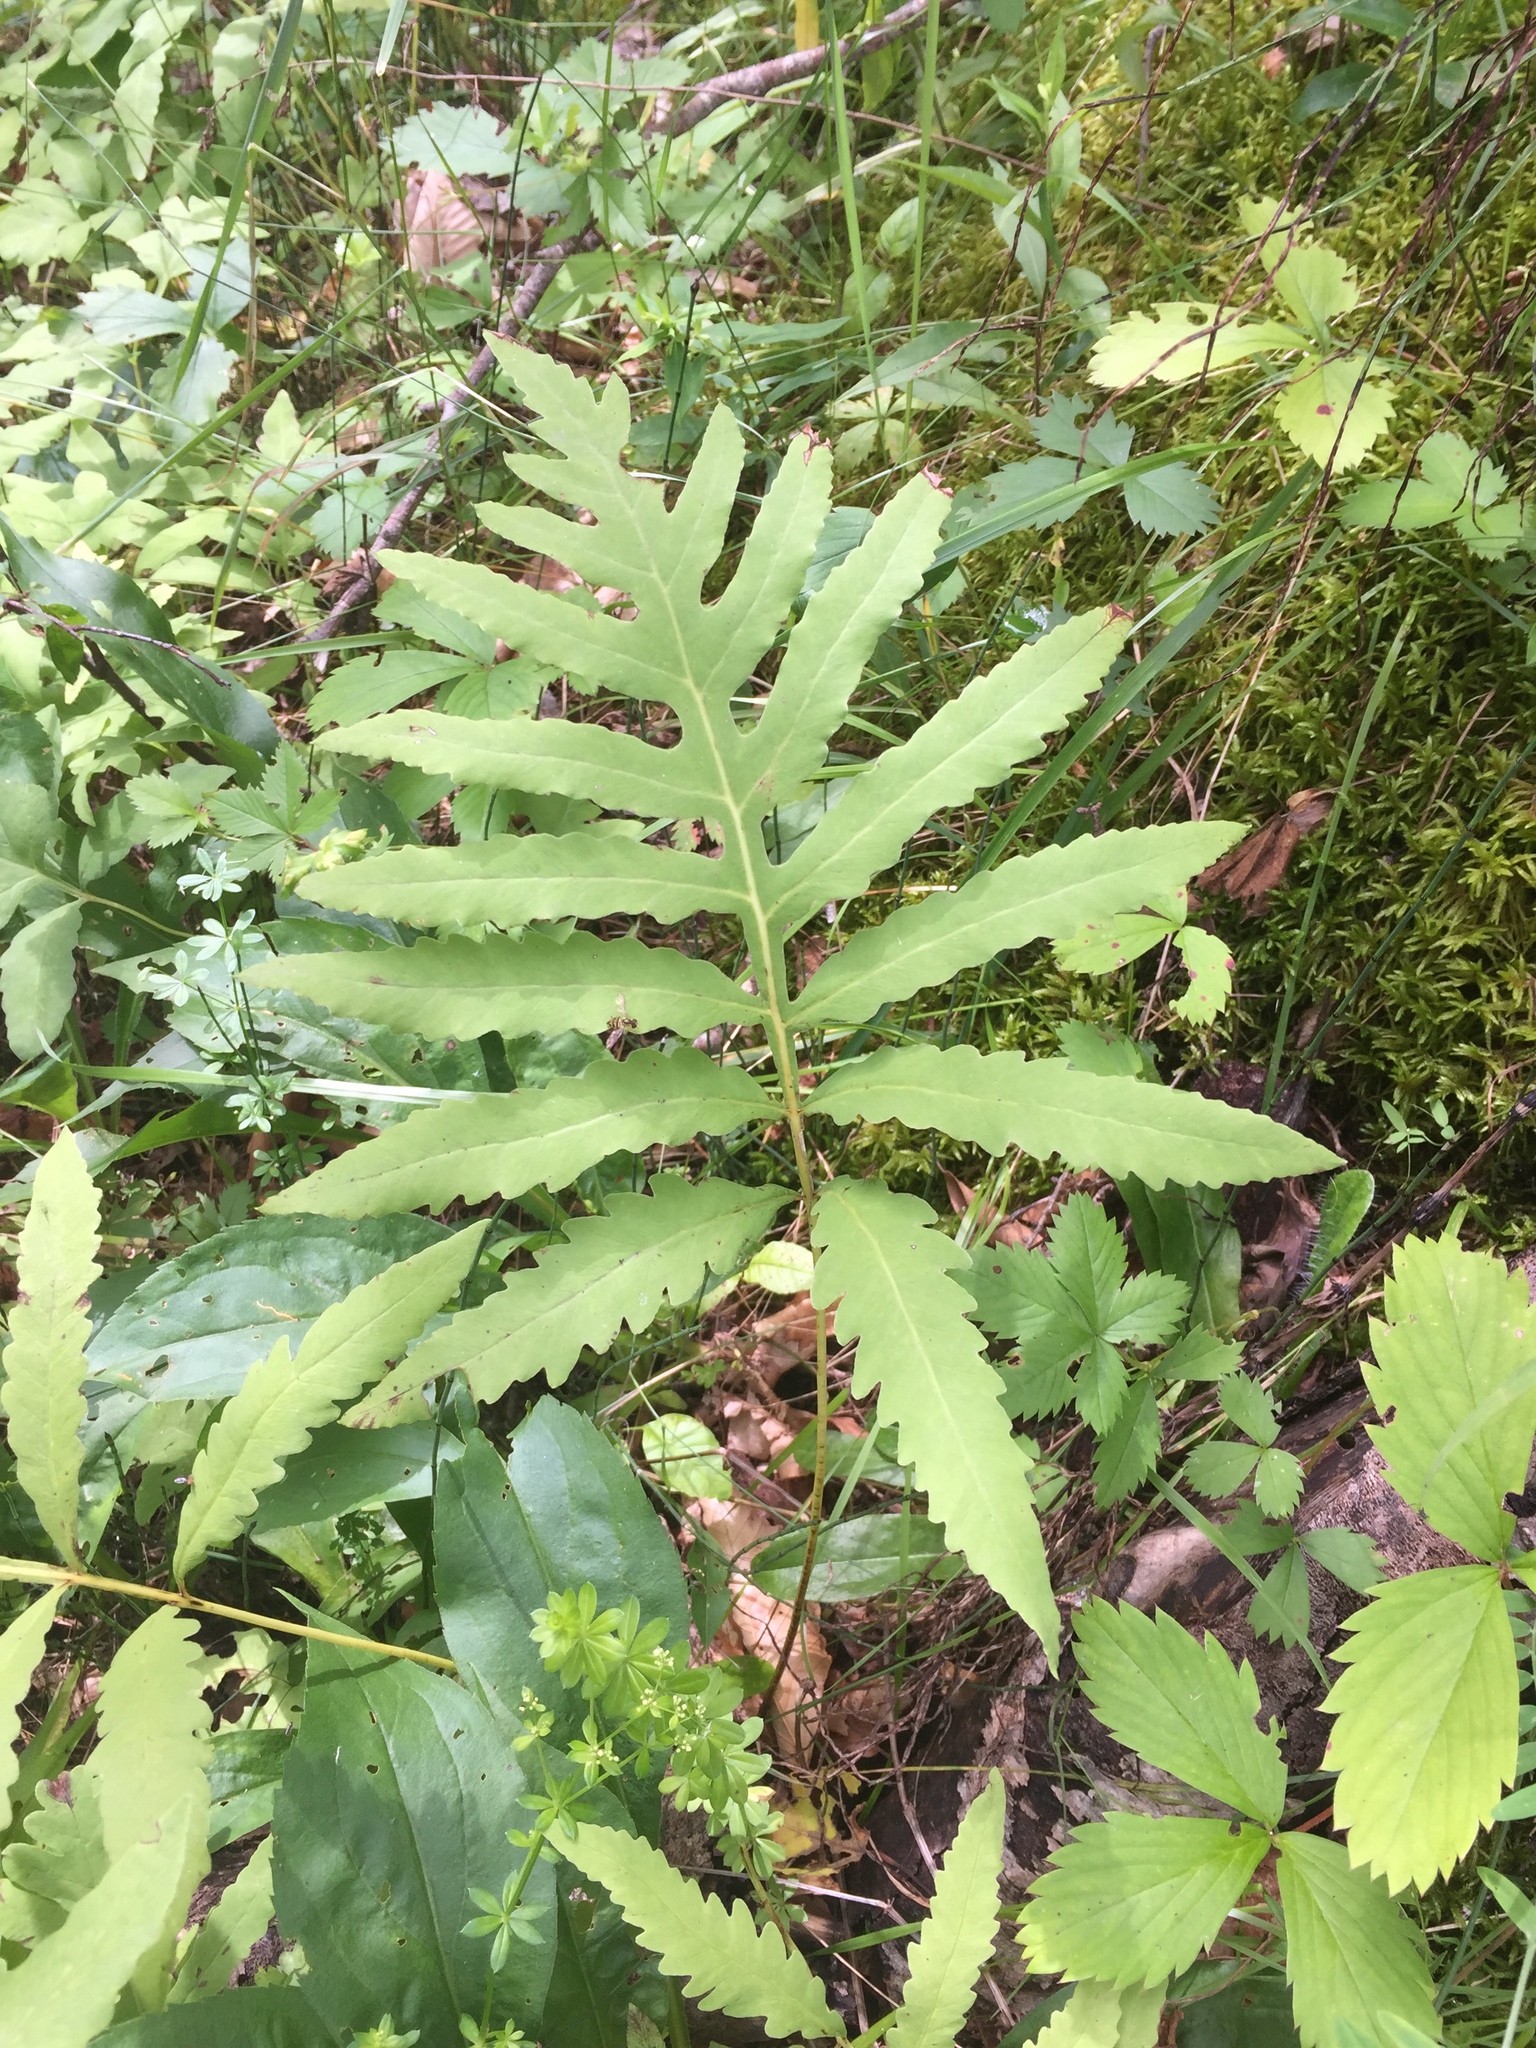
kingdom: Plantae
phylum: Tracheophyta
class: Polypodiopsida
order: Polypodiales
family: Onocleaceae
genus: Onoclea
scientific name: Onoclea sensibilis
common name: Sensitive fern
